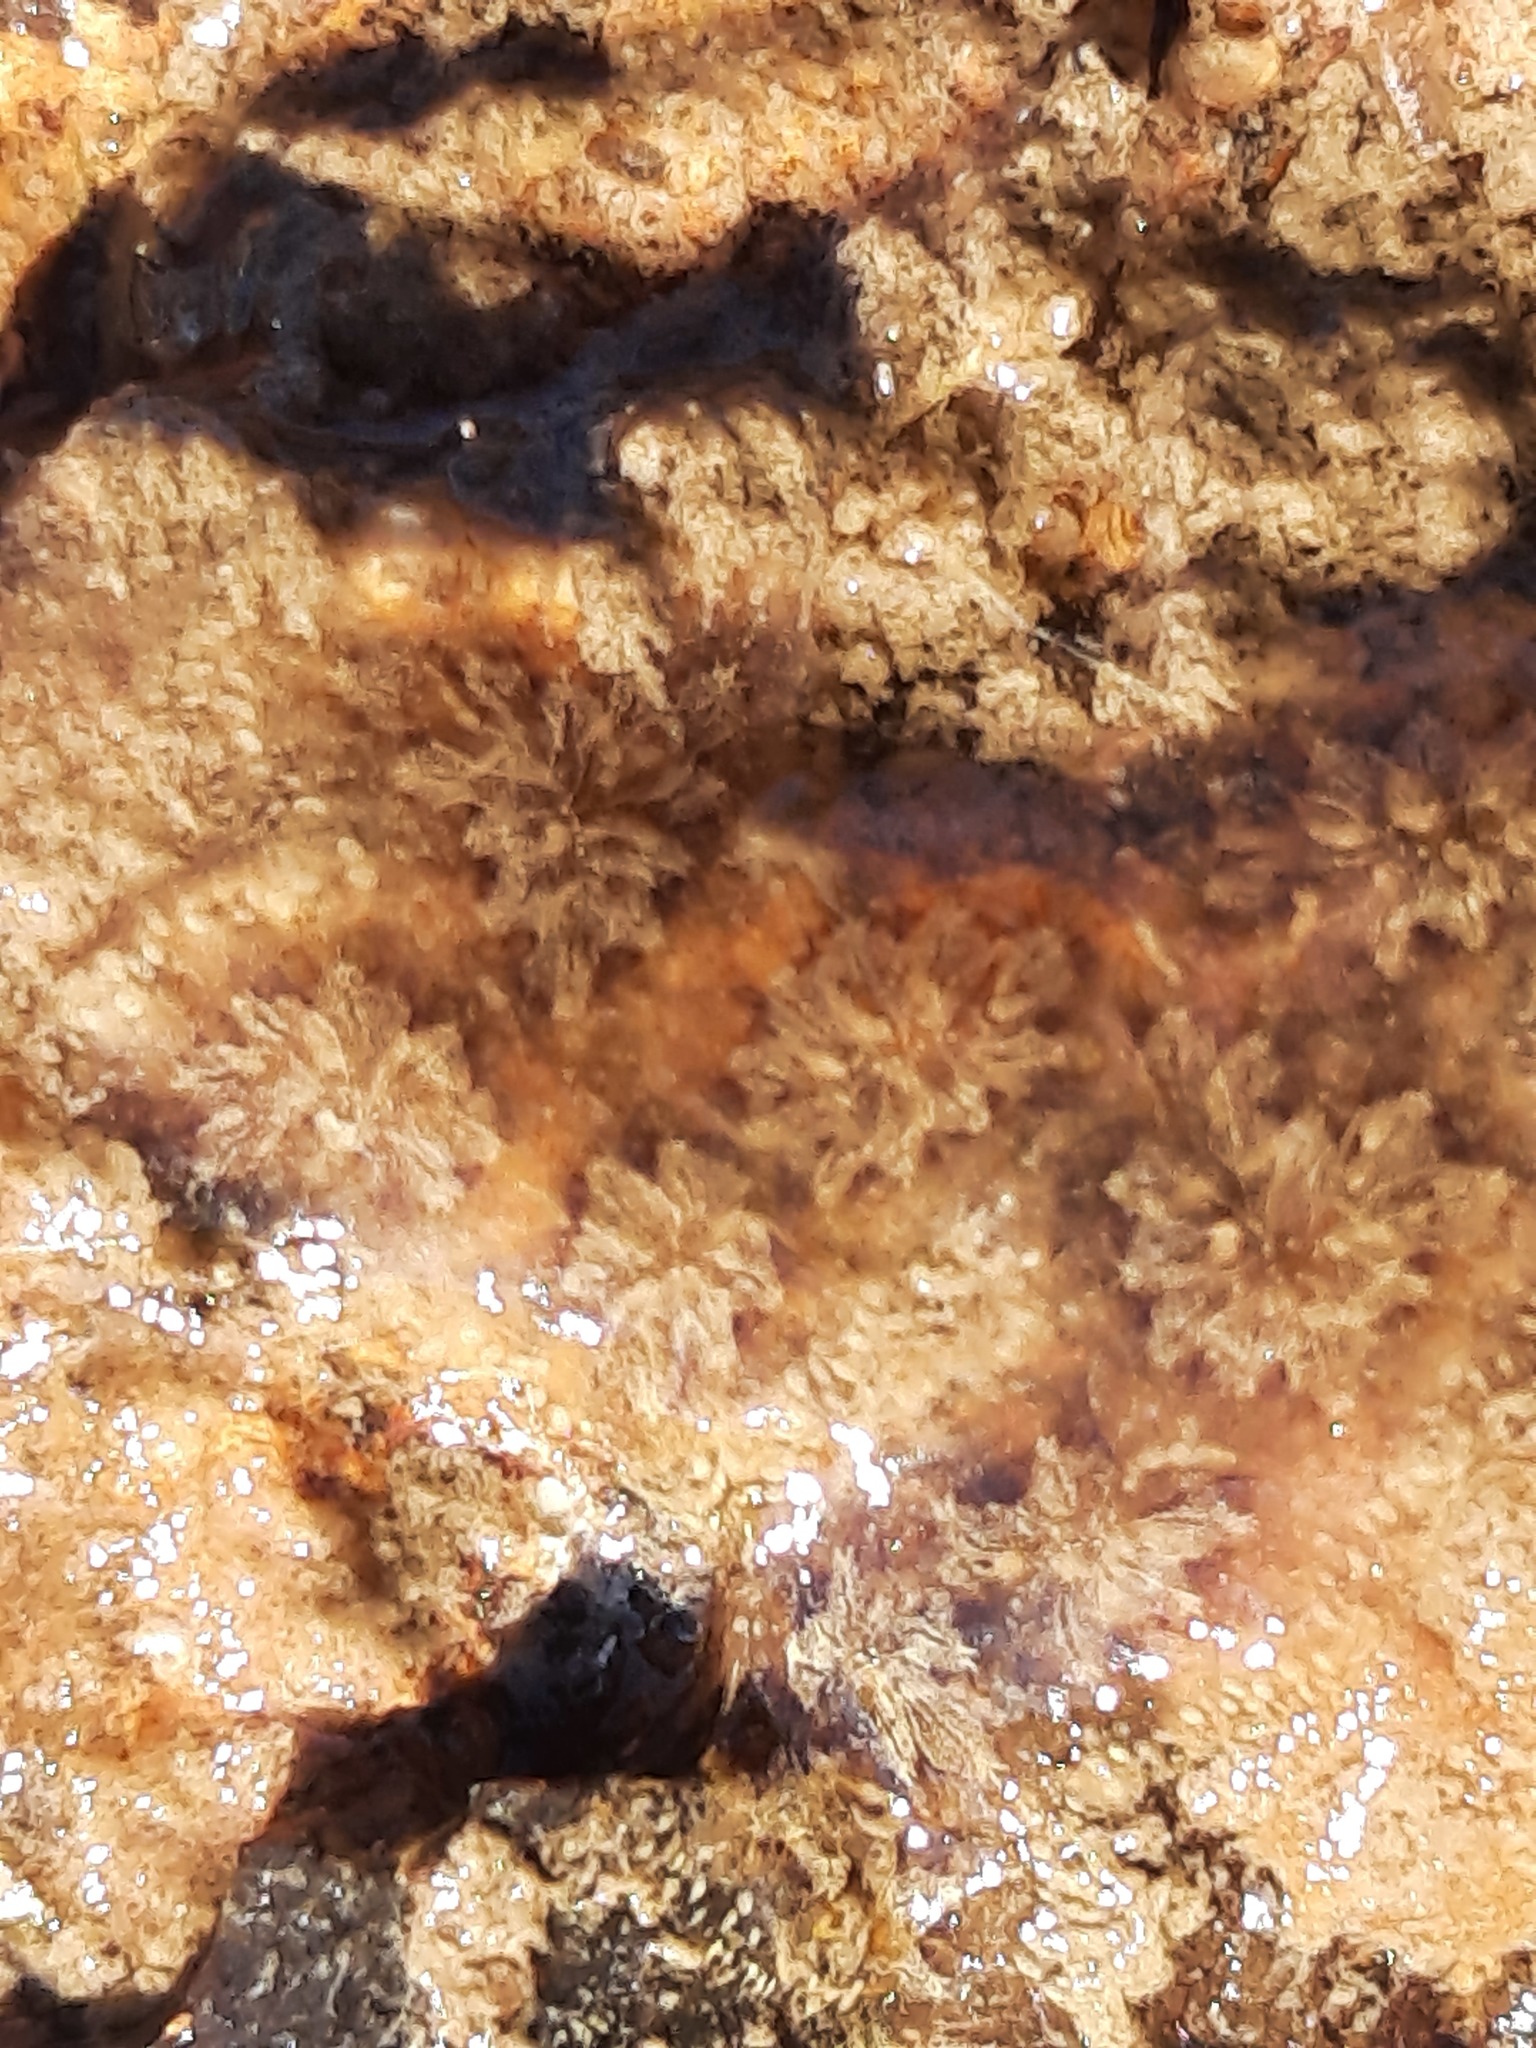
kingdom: Animalia
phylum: Chordata
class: Ascidiacea
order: Stolidobranchia
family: Styelidae
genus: Botryllus
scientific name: Botryllus schlosseri
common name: Golden star tunicate
